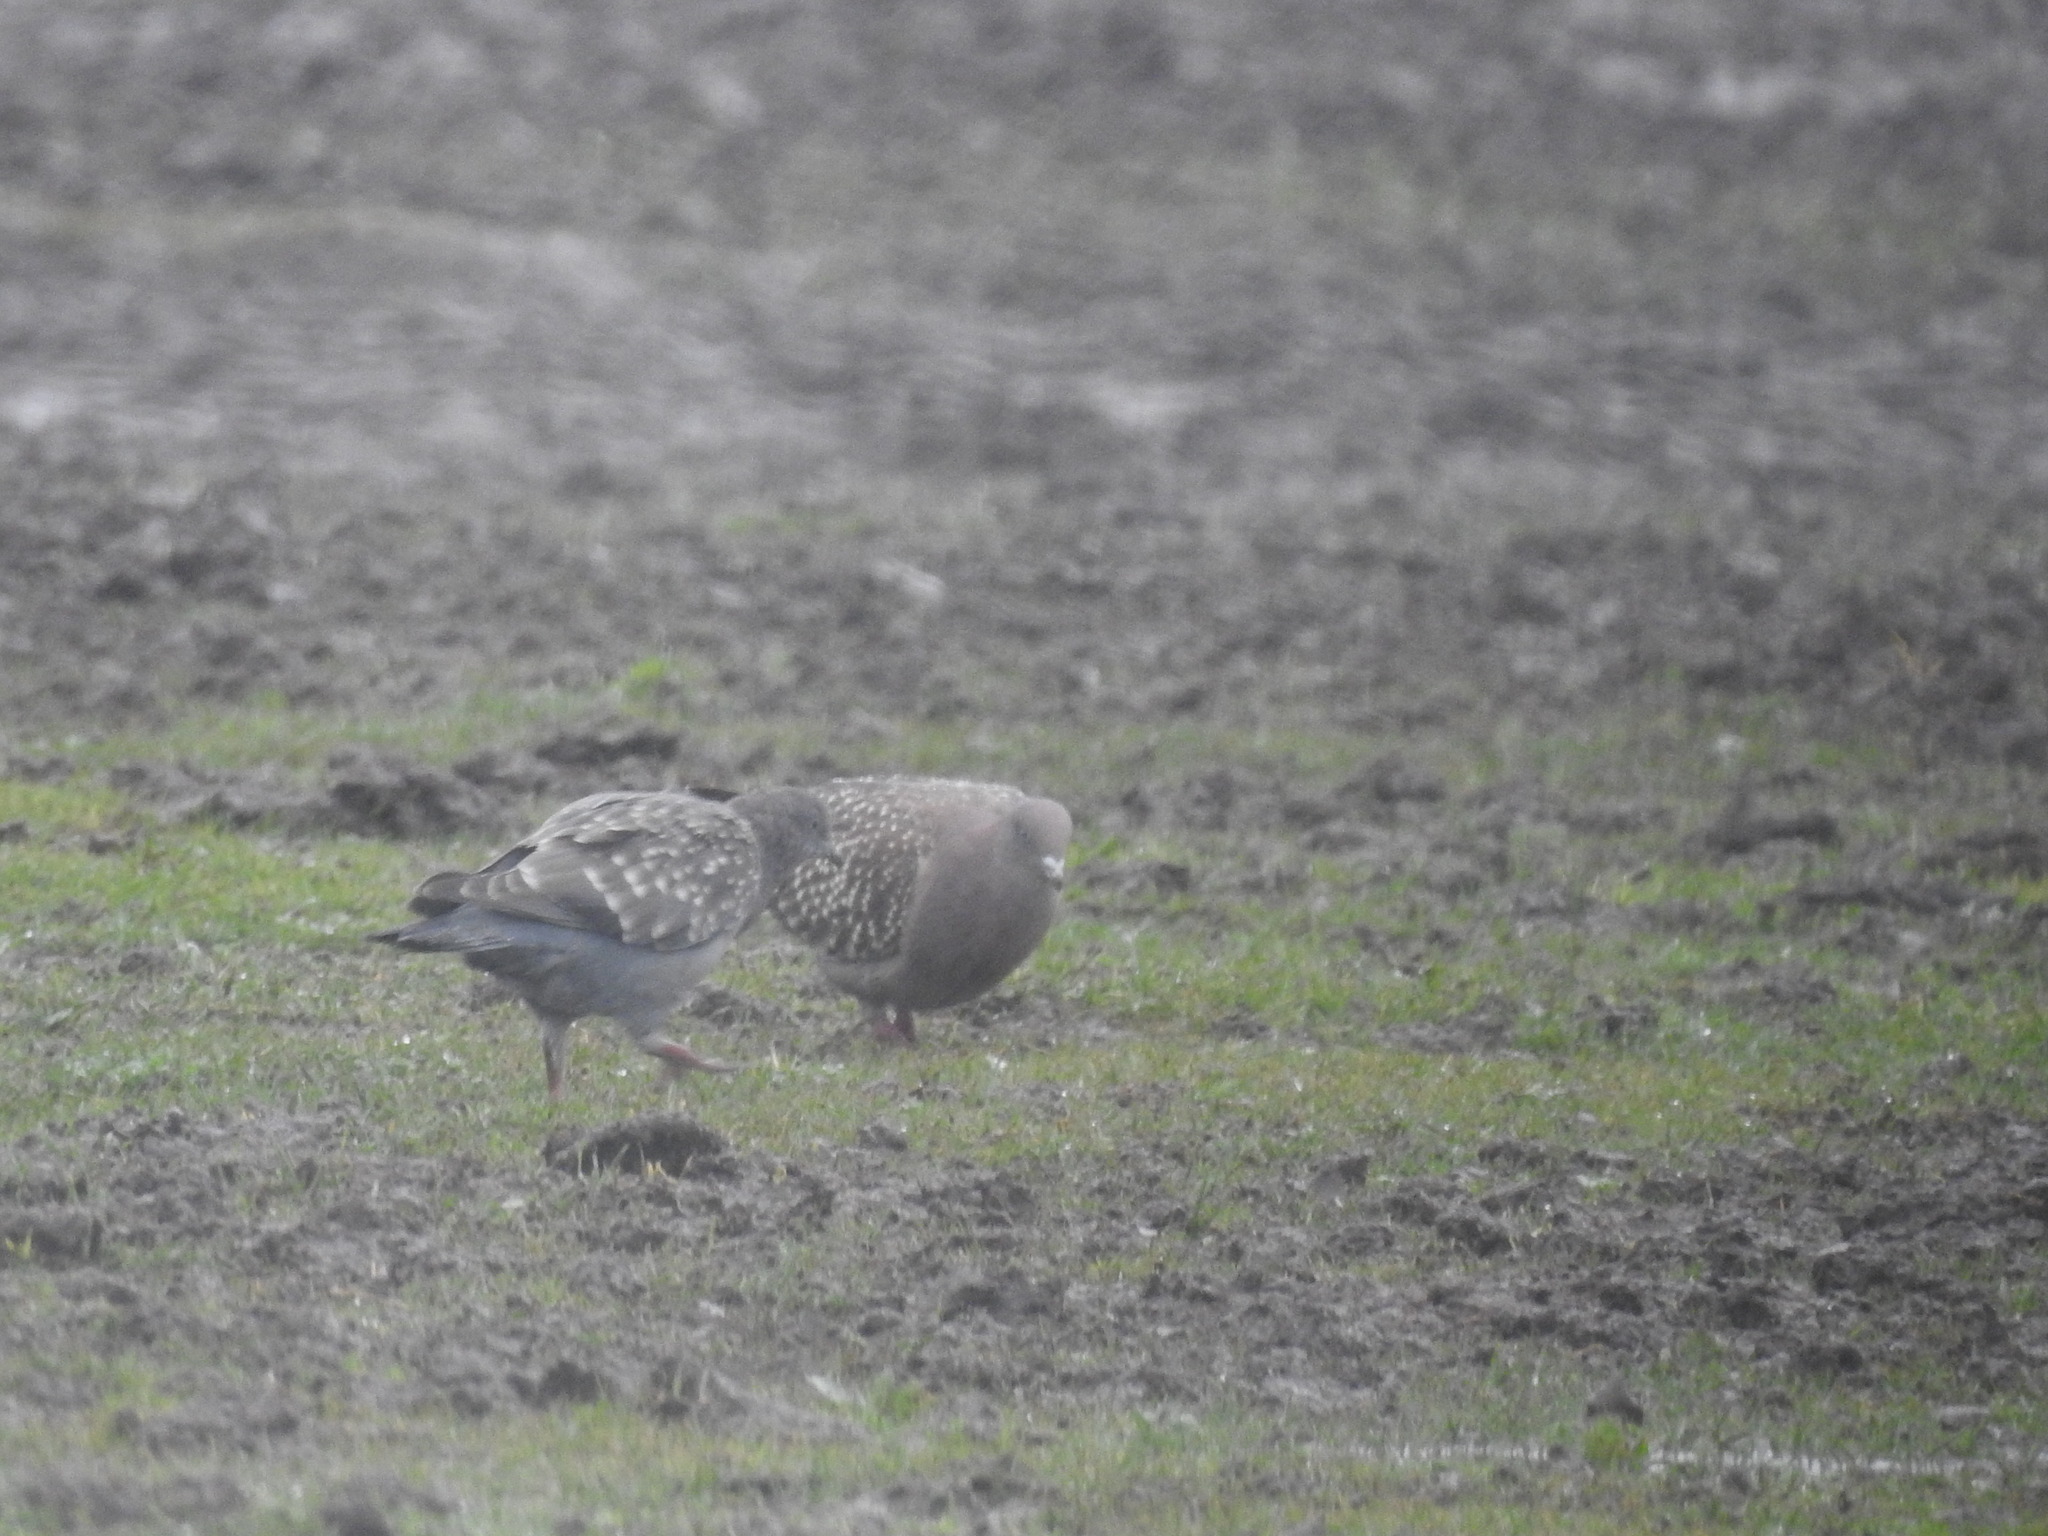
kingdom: Animalia
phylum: Chordata
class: Aves
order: Columbiformes
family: Columbidae
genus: Patagioenas
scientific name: Patagioenas maculosa
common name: Spot-winged pigeon
